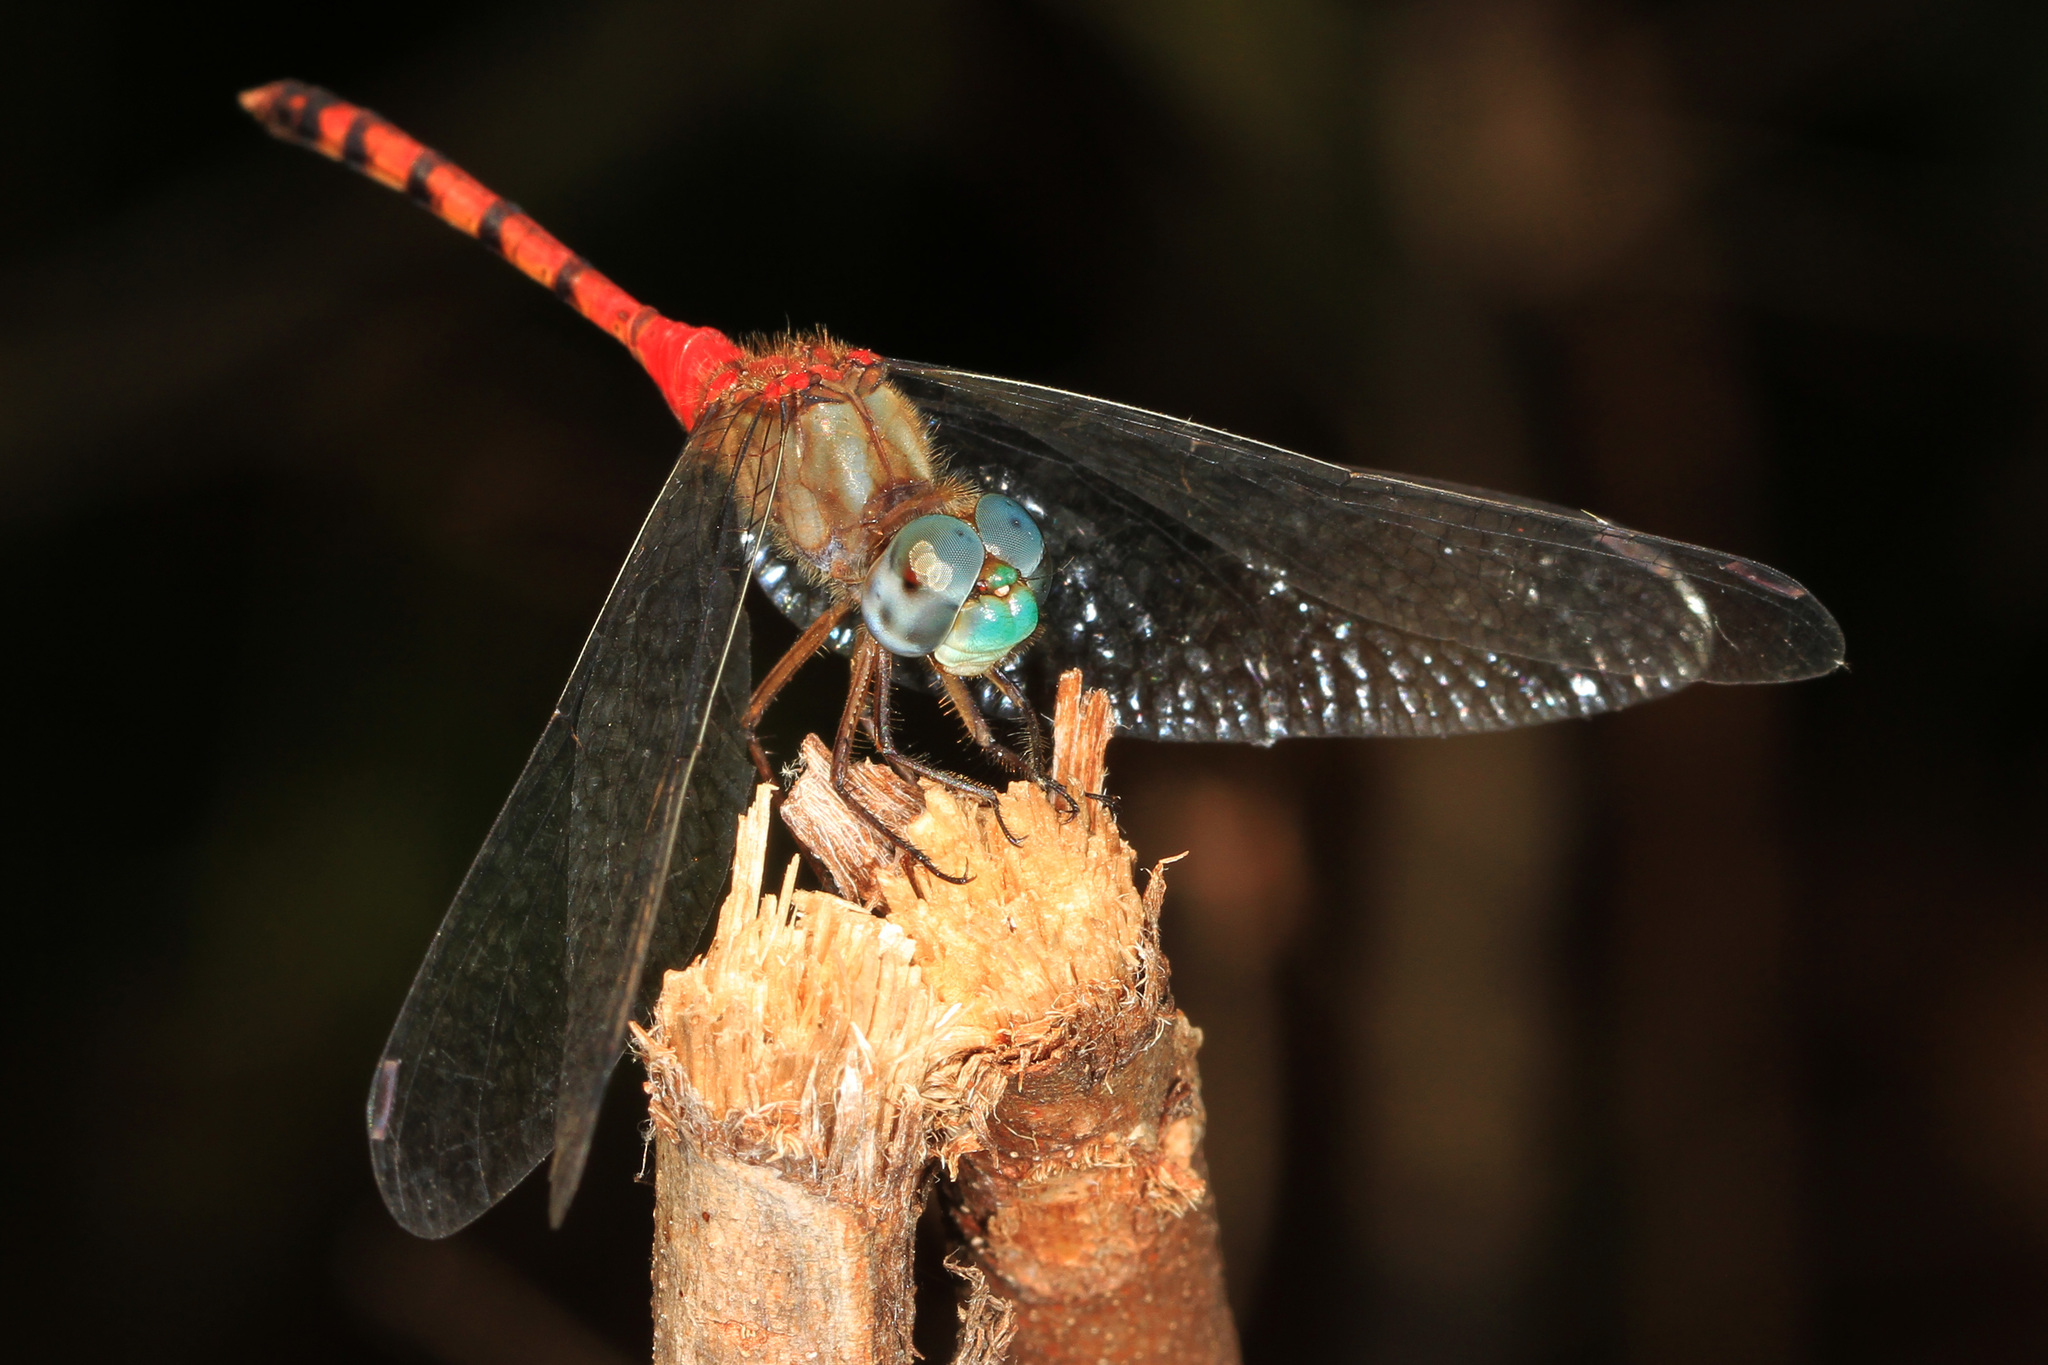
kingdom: Animalia
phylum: Arthropoda
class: Insecta
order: Odonata
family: Libellulidae
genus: Sympetrum
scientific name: Sympetrum ambiguum
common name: Blue-faced meadowhawk
